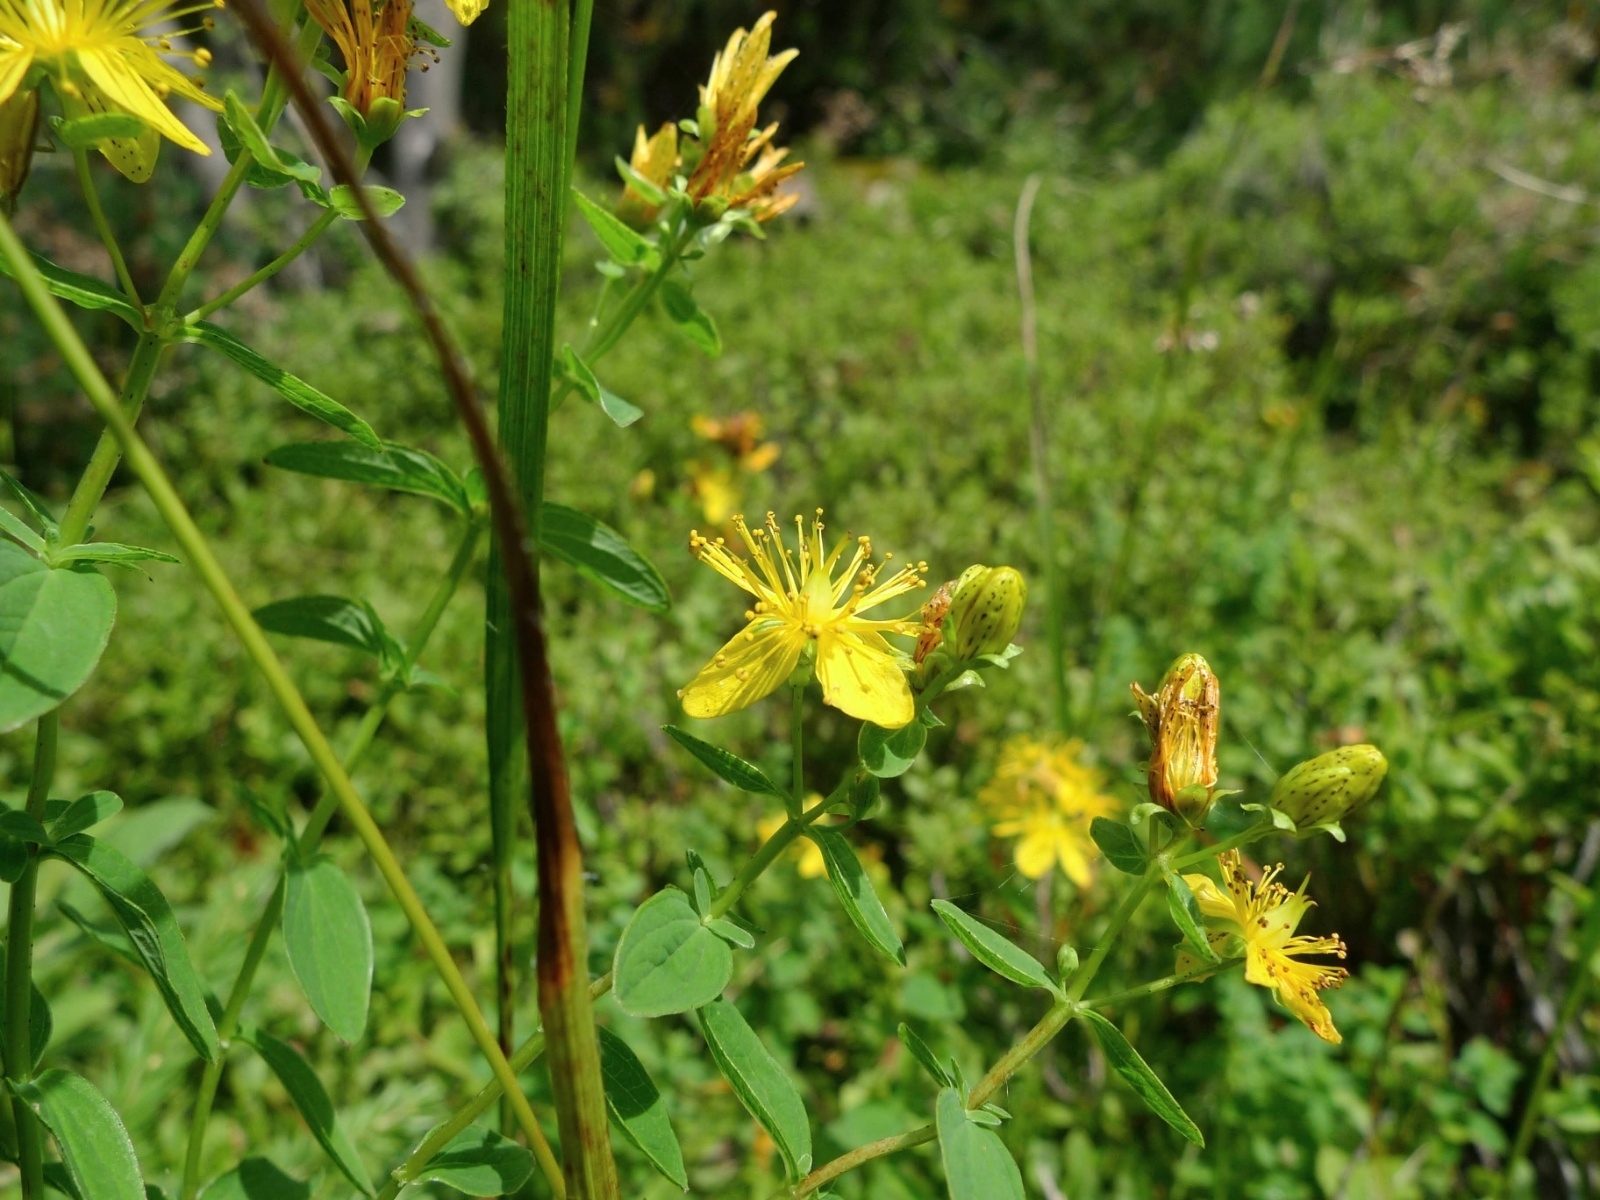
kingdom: Plantae
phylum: Tracheophyta
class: Magnoliopsida
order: Malpighiales
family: Hypericaceae
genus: Hypericum
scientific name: Hypericum maculatum
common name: Imperforate st. john's-wort
